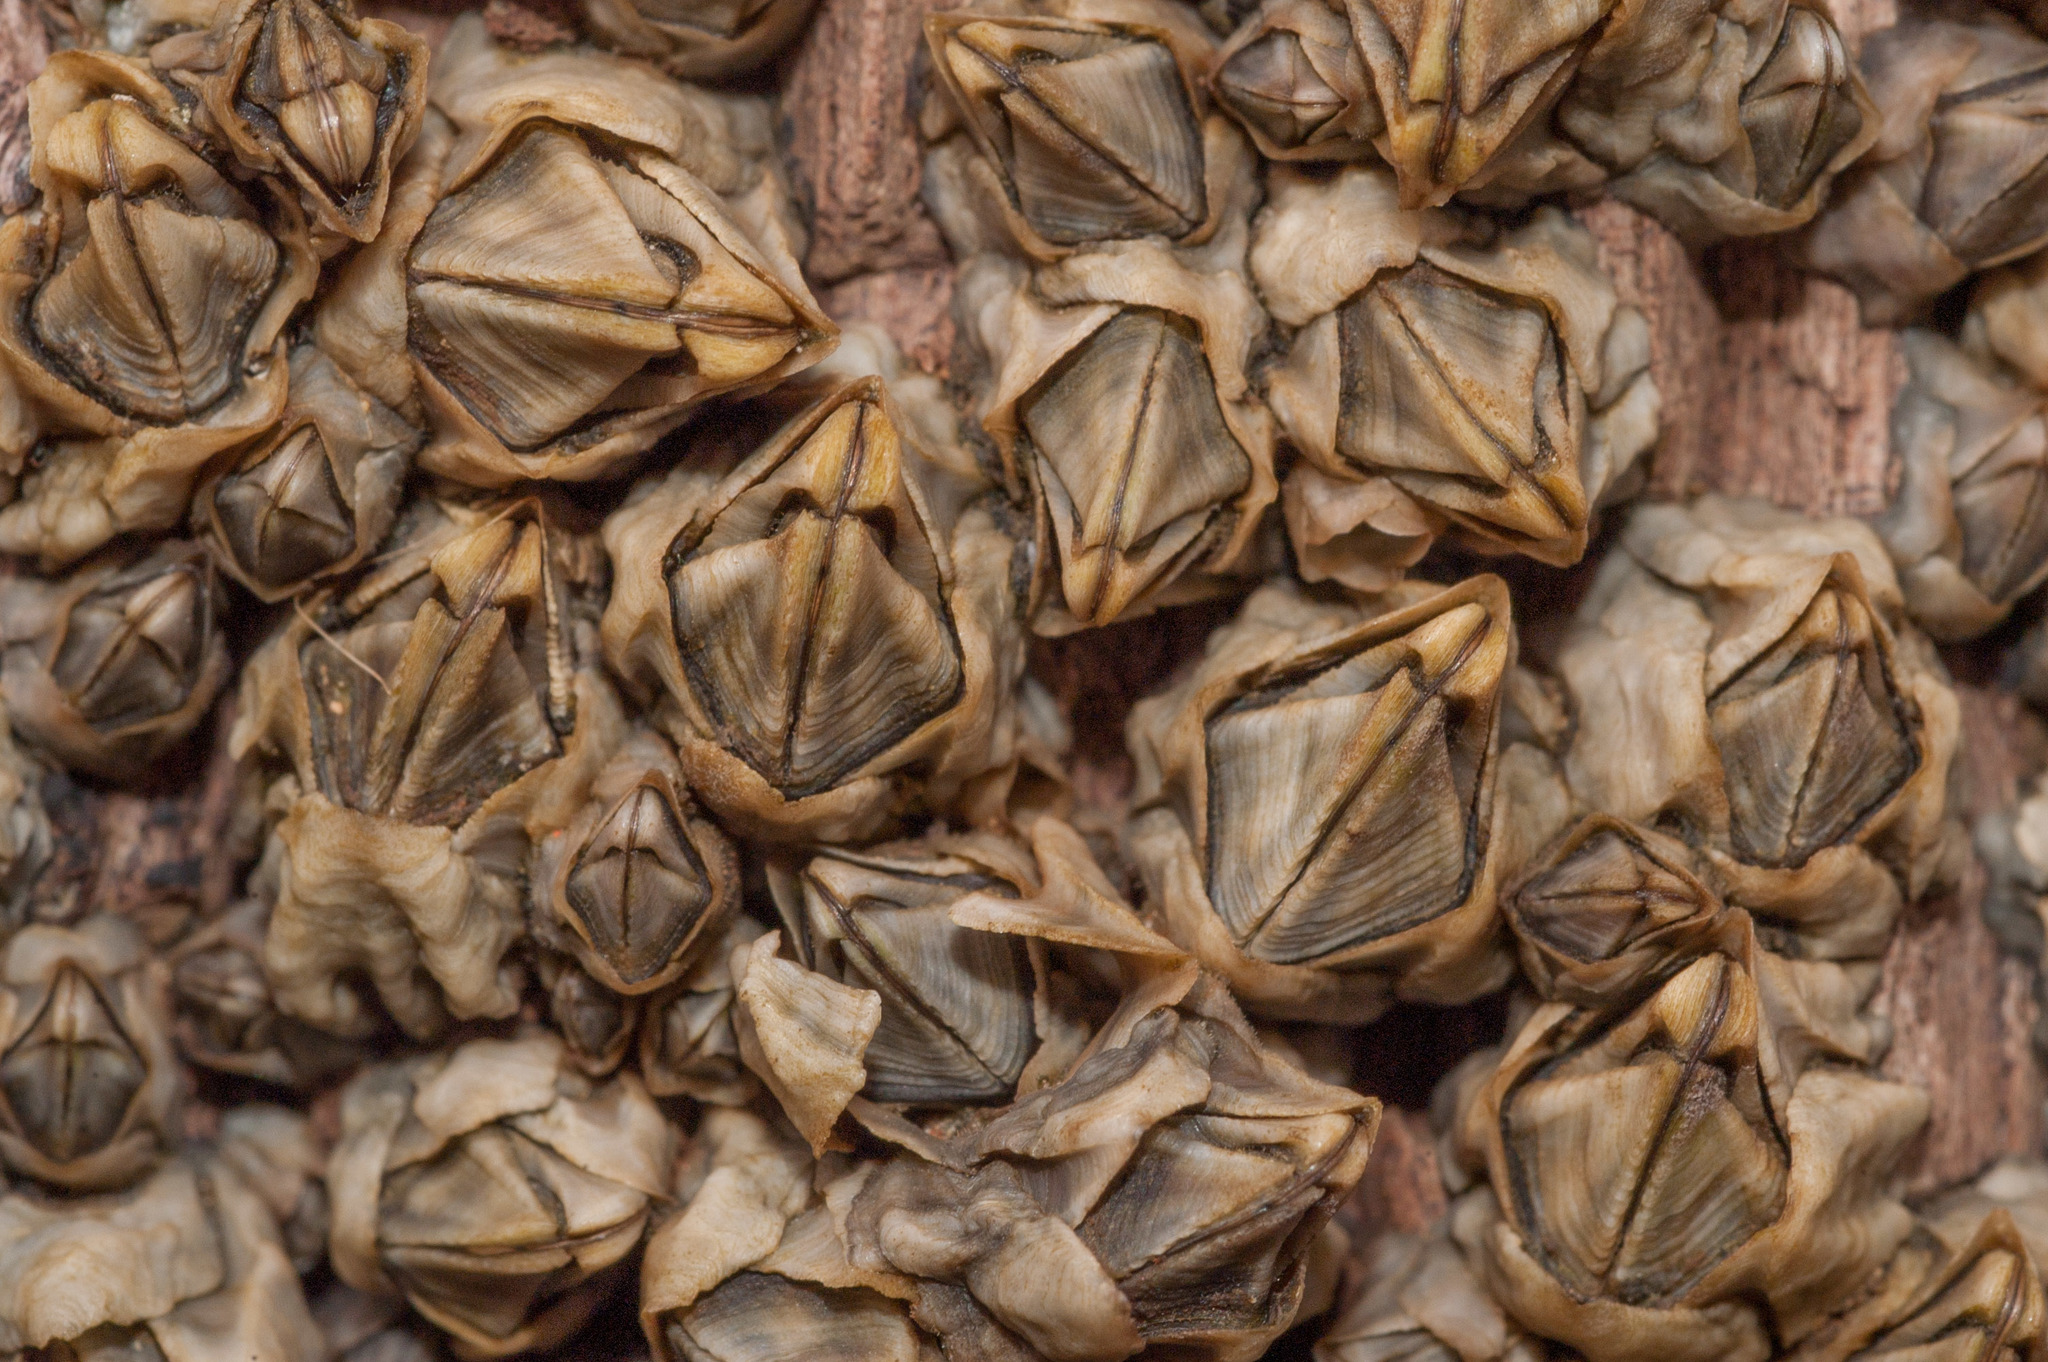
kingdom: Animalia
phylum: Arthropoda
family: Elminiidae
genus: Austrominius
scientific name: Austrominius modestus
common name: Australasian barnacle
